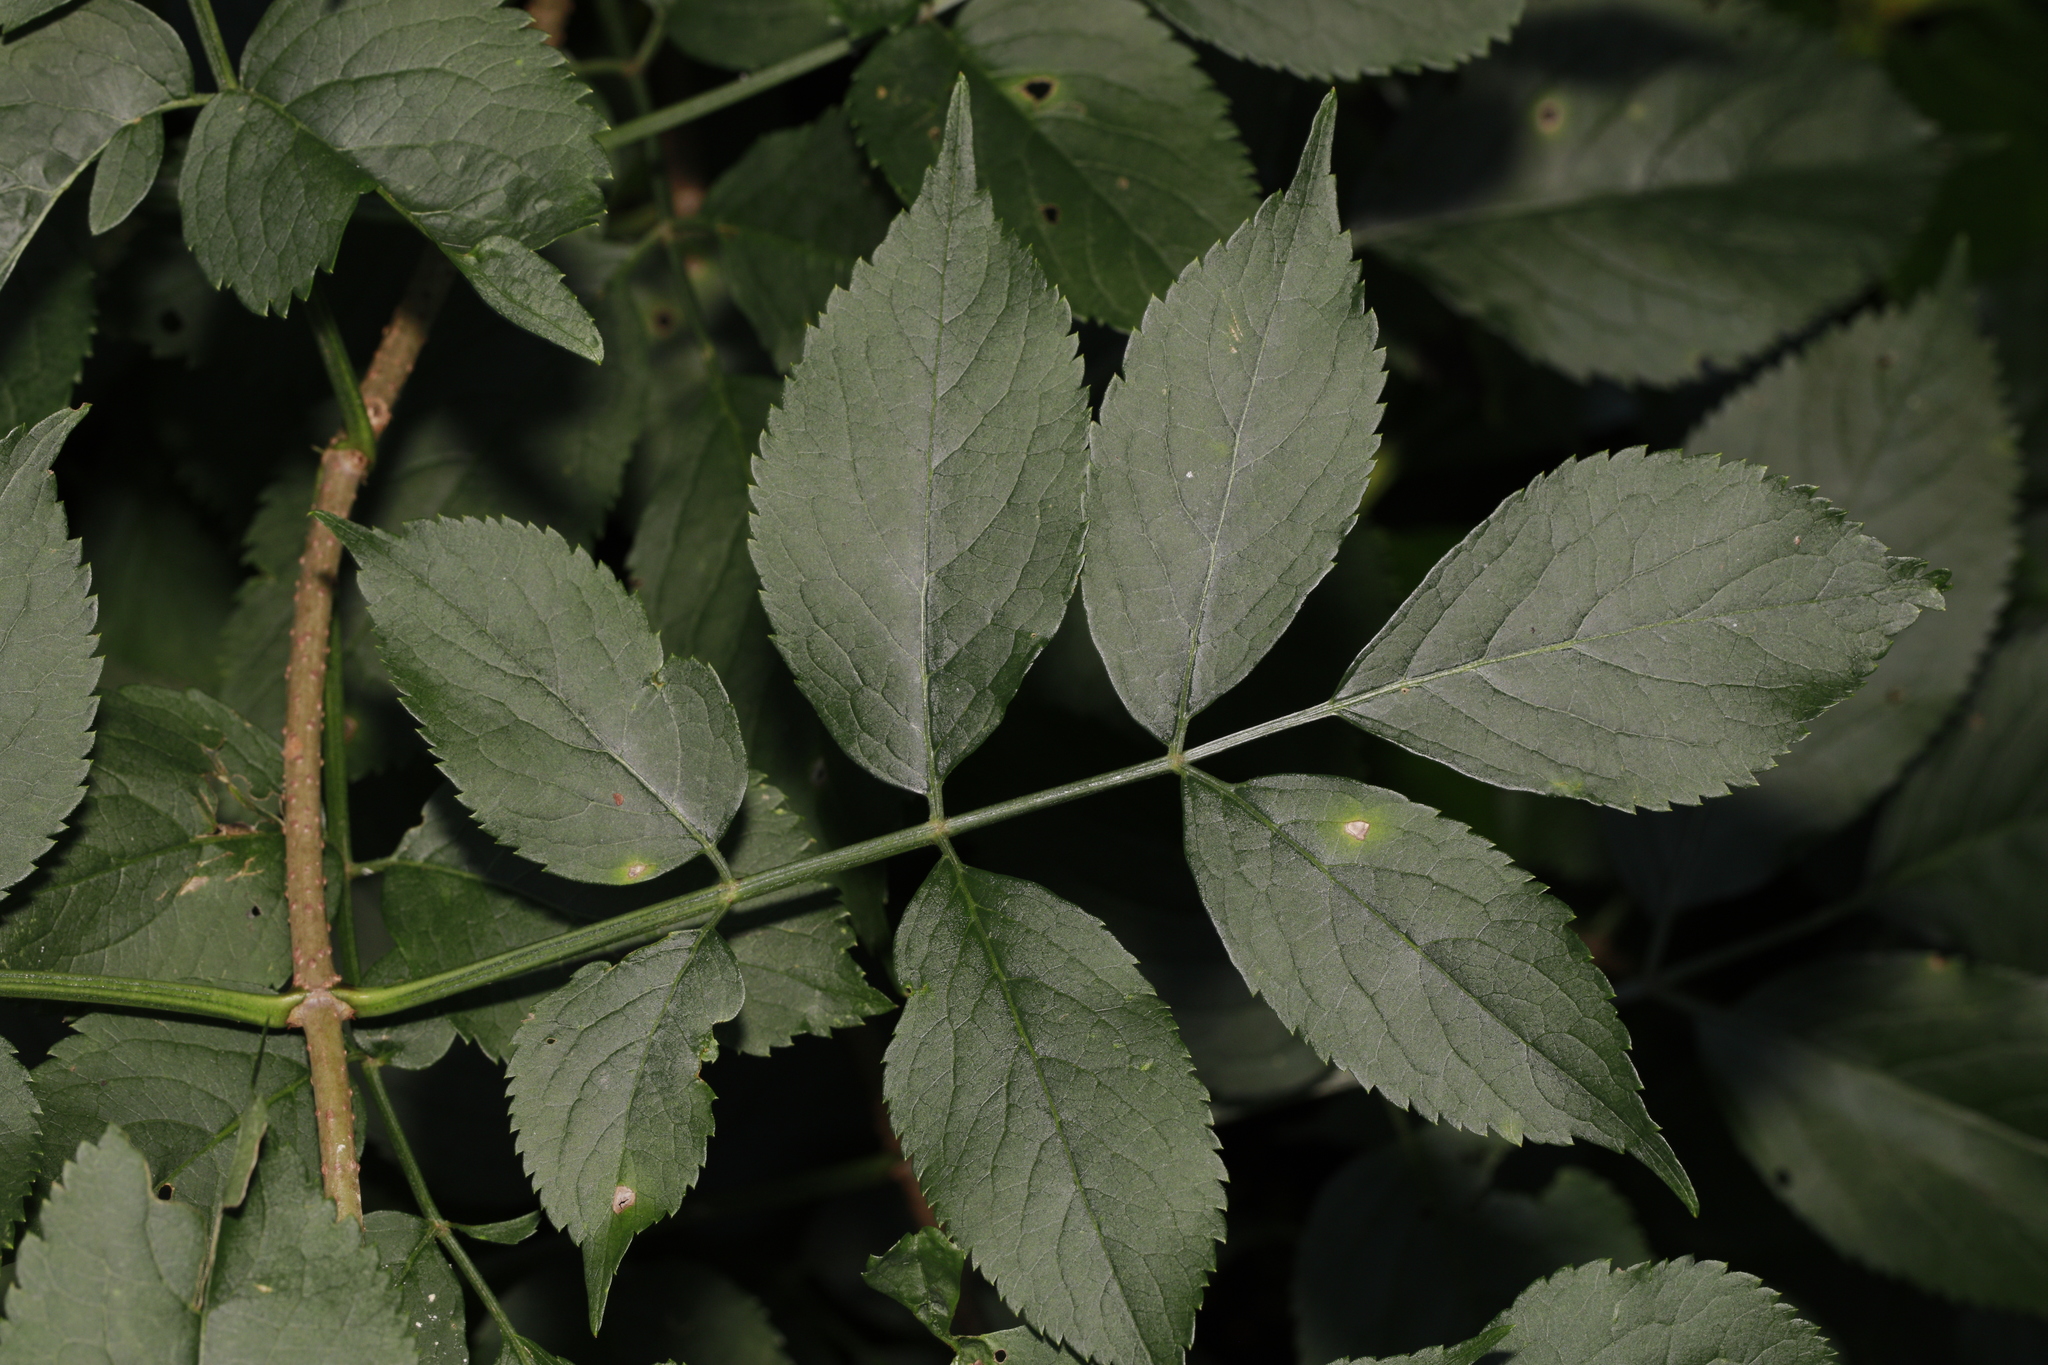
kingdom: Plantae
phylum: Tracheophyta
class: Magnoliopsida
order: Dipsacales
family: Viburnaceae
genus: Sambucus
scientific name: Sambucus nigra
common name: Elder
